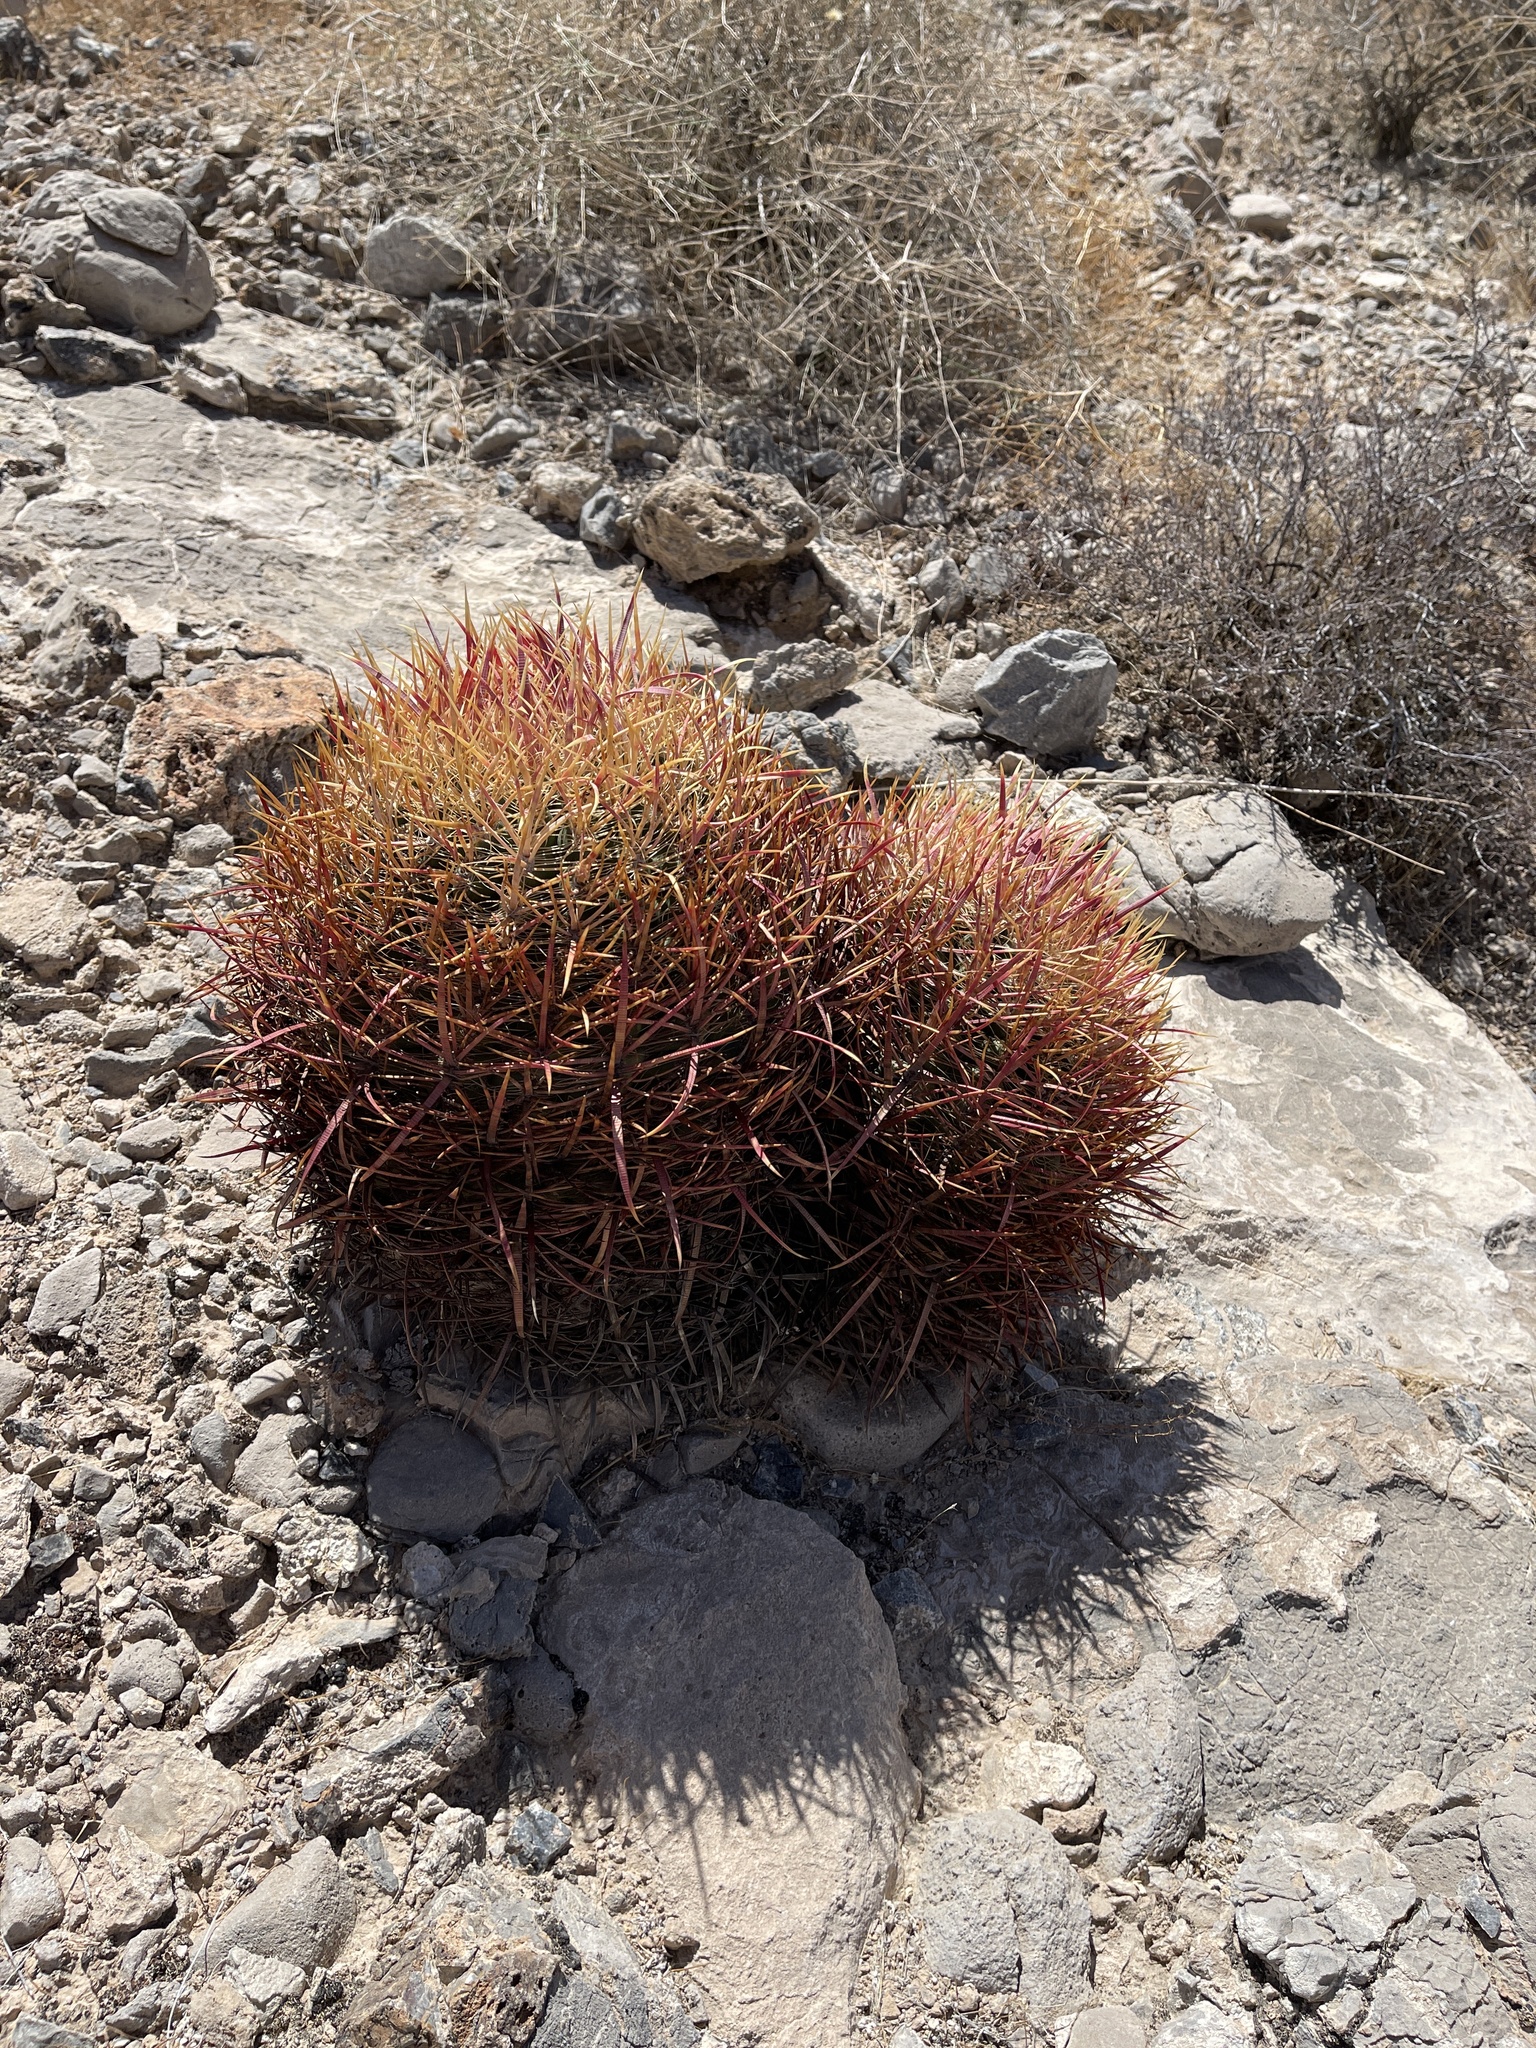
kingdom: Plantae
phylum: Tracheophyta
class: Magnoliopsida
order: Caryophyllales
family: Cactaceae
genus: Ferocactus
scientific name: Ferocactus cylindraceus
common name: California barrel cactus
